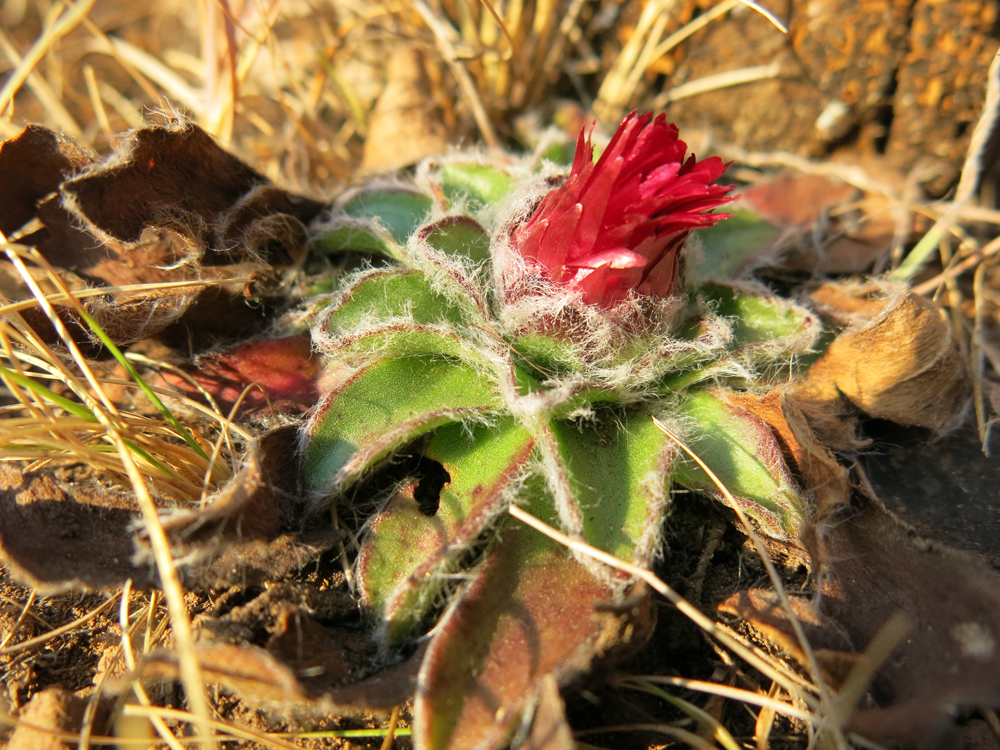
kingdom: Plantae
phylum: Tracheophyta
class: Magnoliopsida
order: Asterales
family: Asteraceae
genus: Helichrysum
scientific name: Helichrysum vernum
